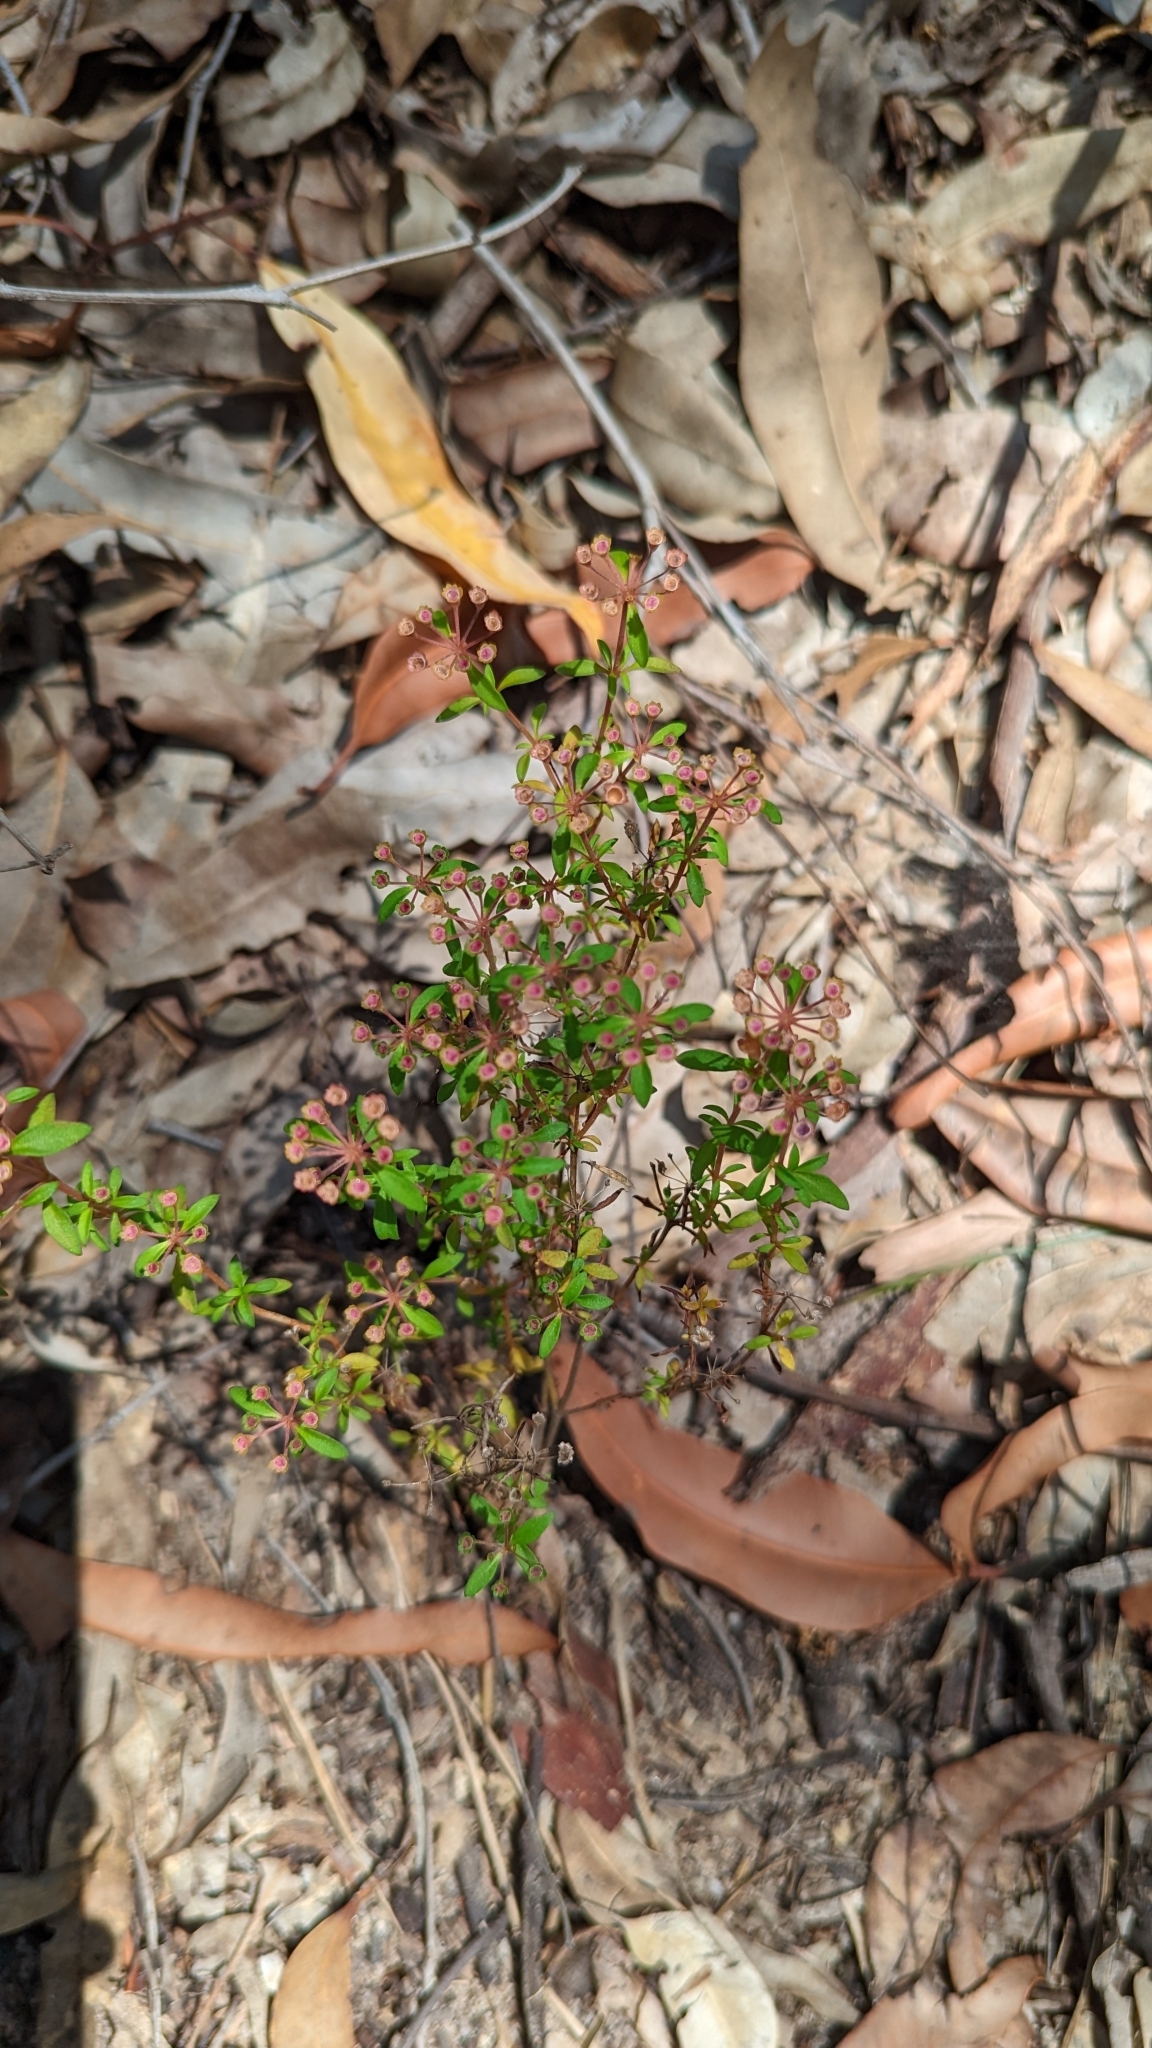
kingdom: Plantae
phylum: Tracheophyta
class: Magnoliopsida
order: Gentianales
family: Rubiaceae
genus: Pomax
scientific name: Pomax umbellata
